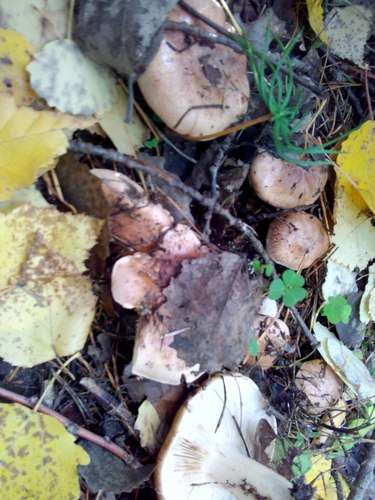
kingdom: Fungi
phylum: Basidiomycota
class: Agaricomycetes
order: Agaricales
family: Tricholomataceae
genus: Tricholoma
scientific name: Tricholoma fulvum
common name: Birch knight
